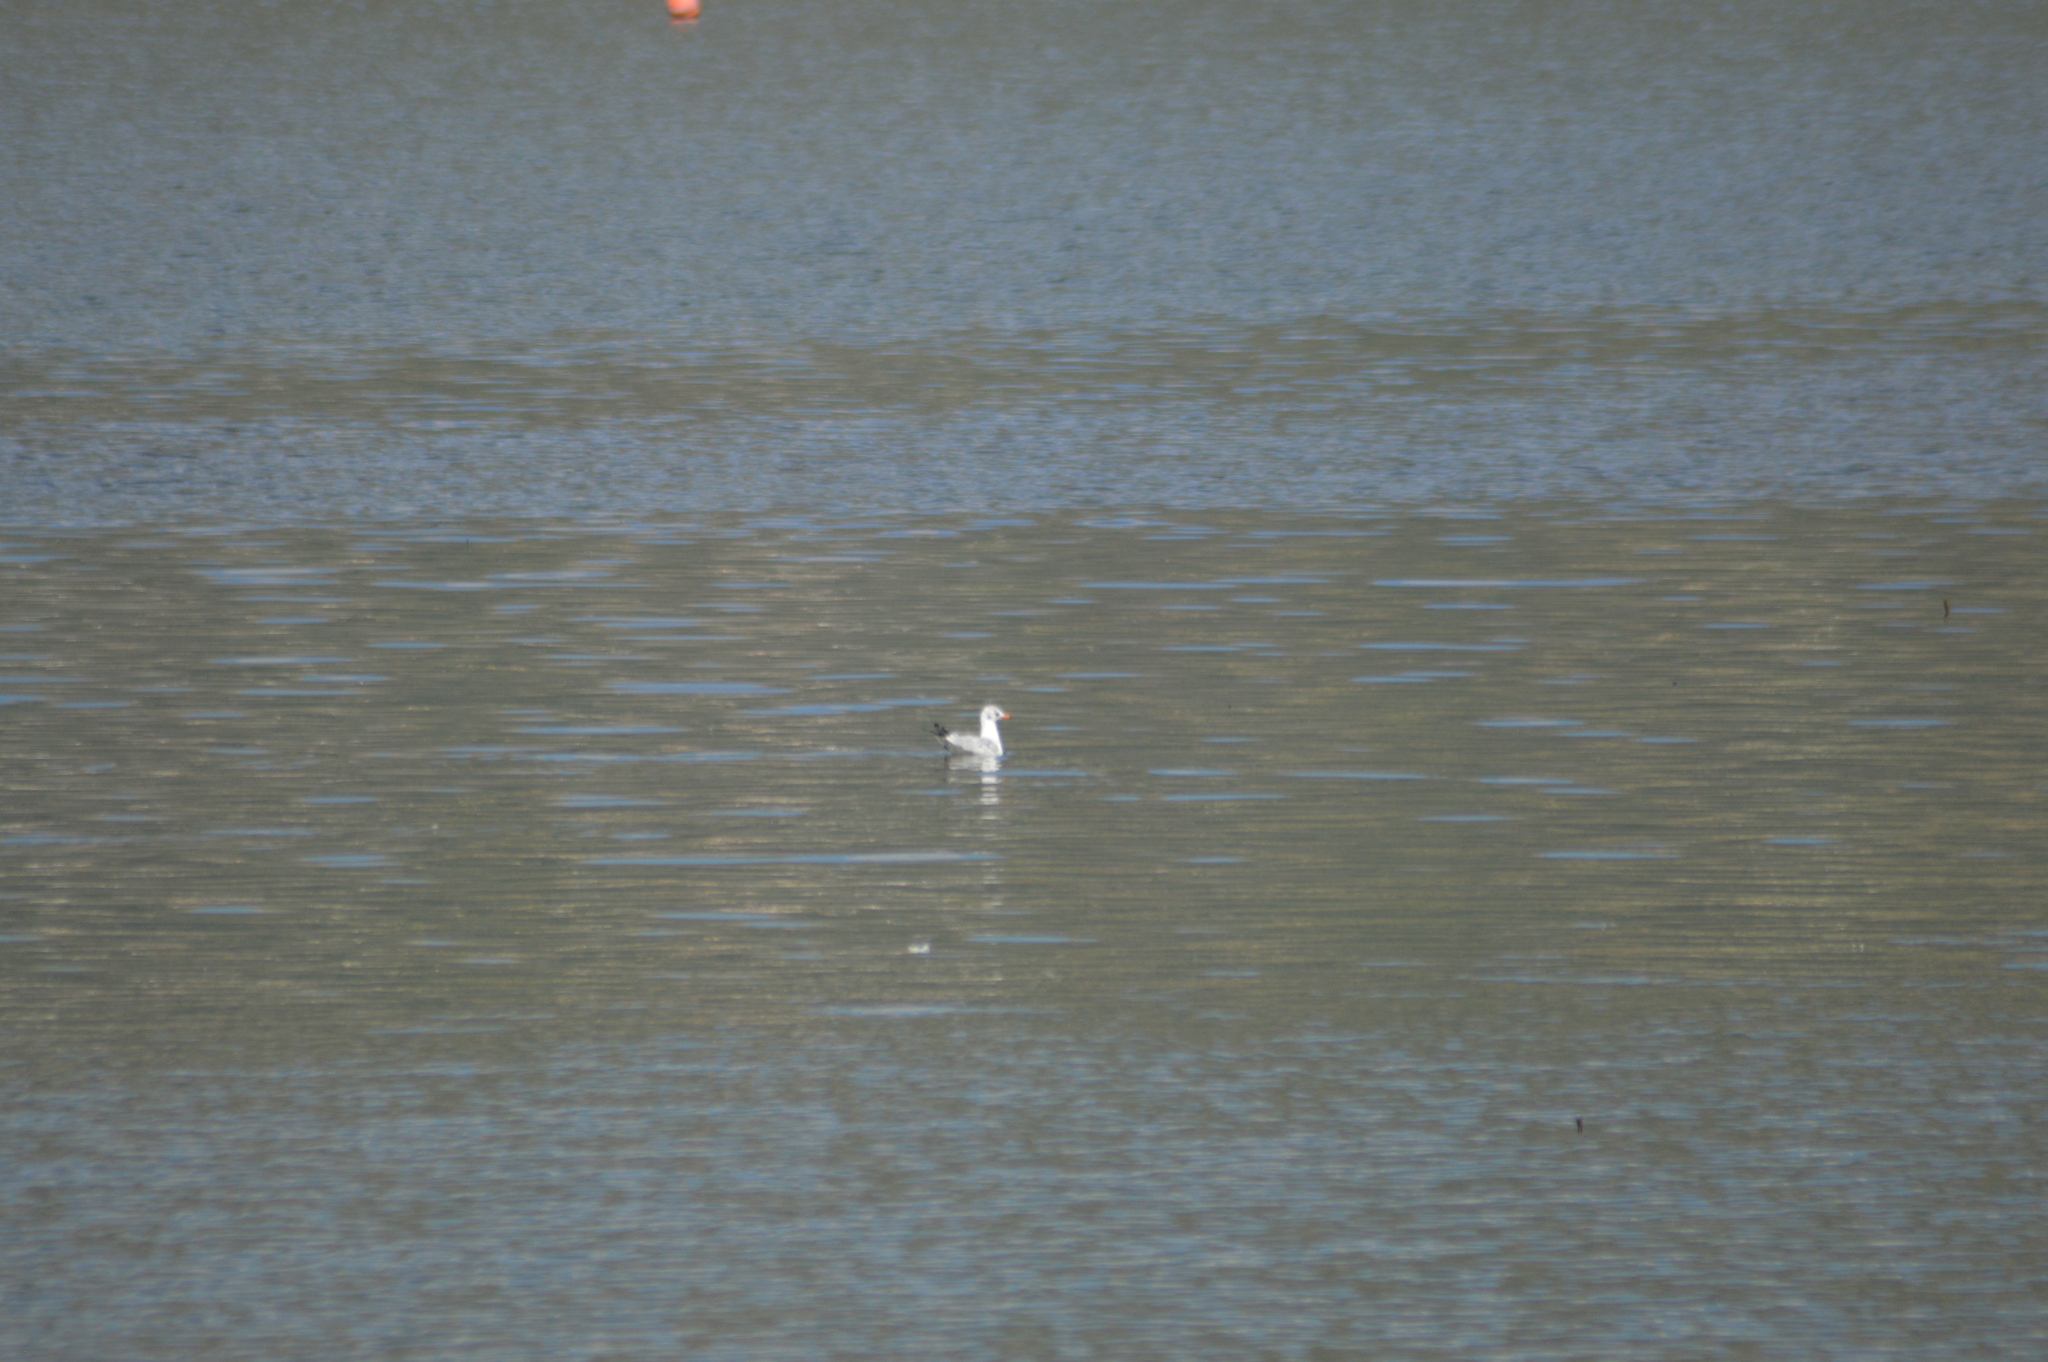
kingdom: Animalia
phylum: Chordata
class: Aves
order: Charadriiformes
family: Laridae
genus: Chroicocephalus
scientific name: Chroicocephalus ridibundus
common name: Black-headed gull
